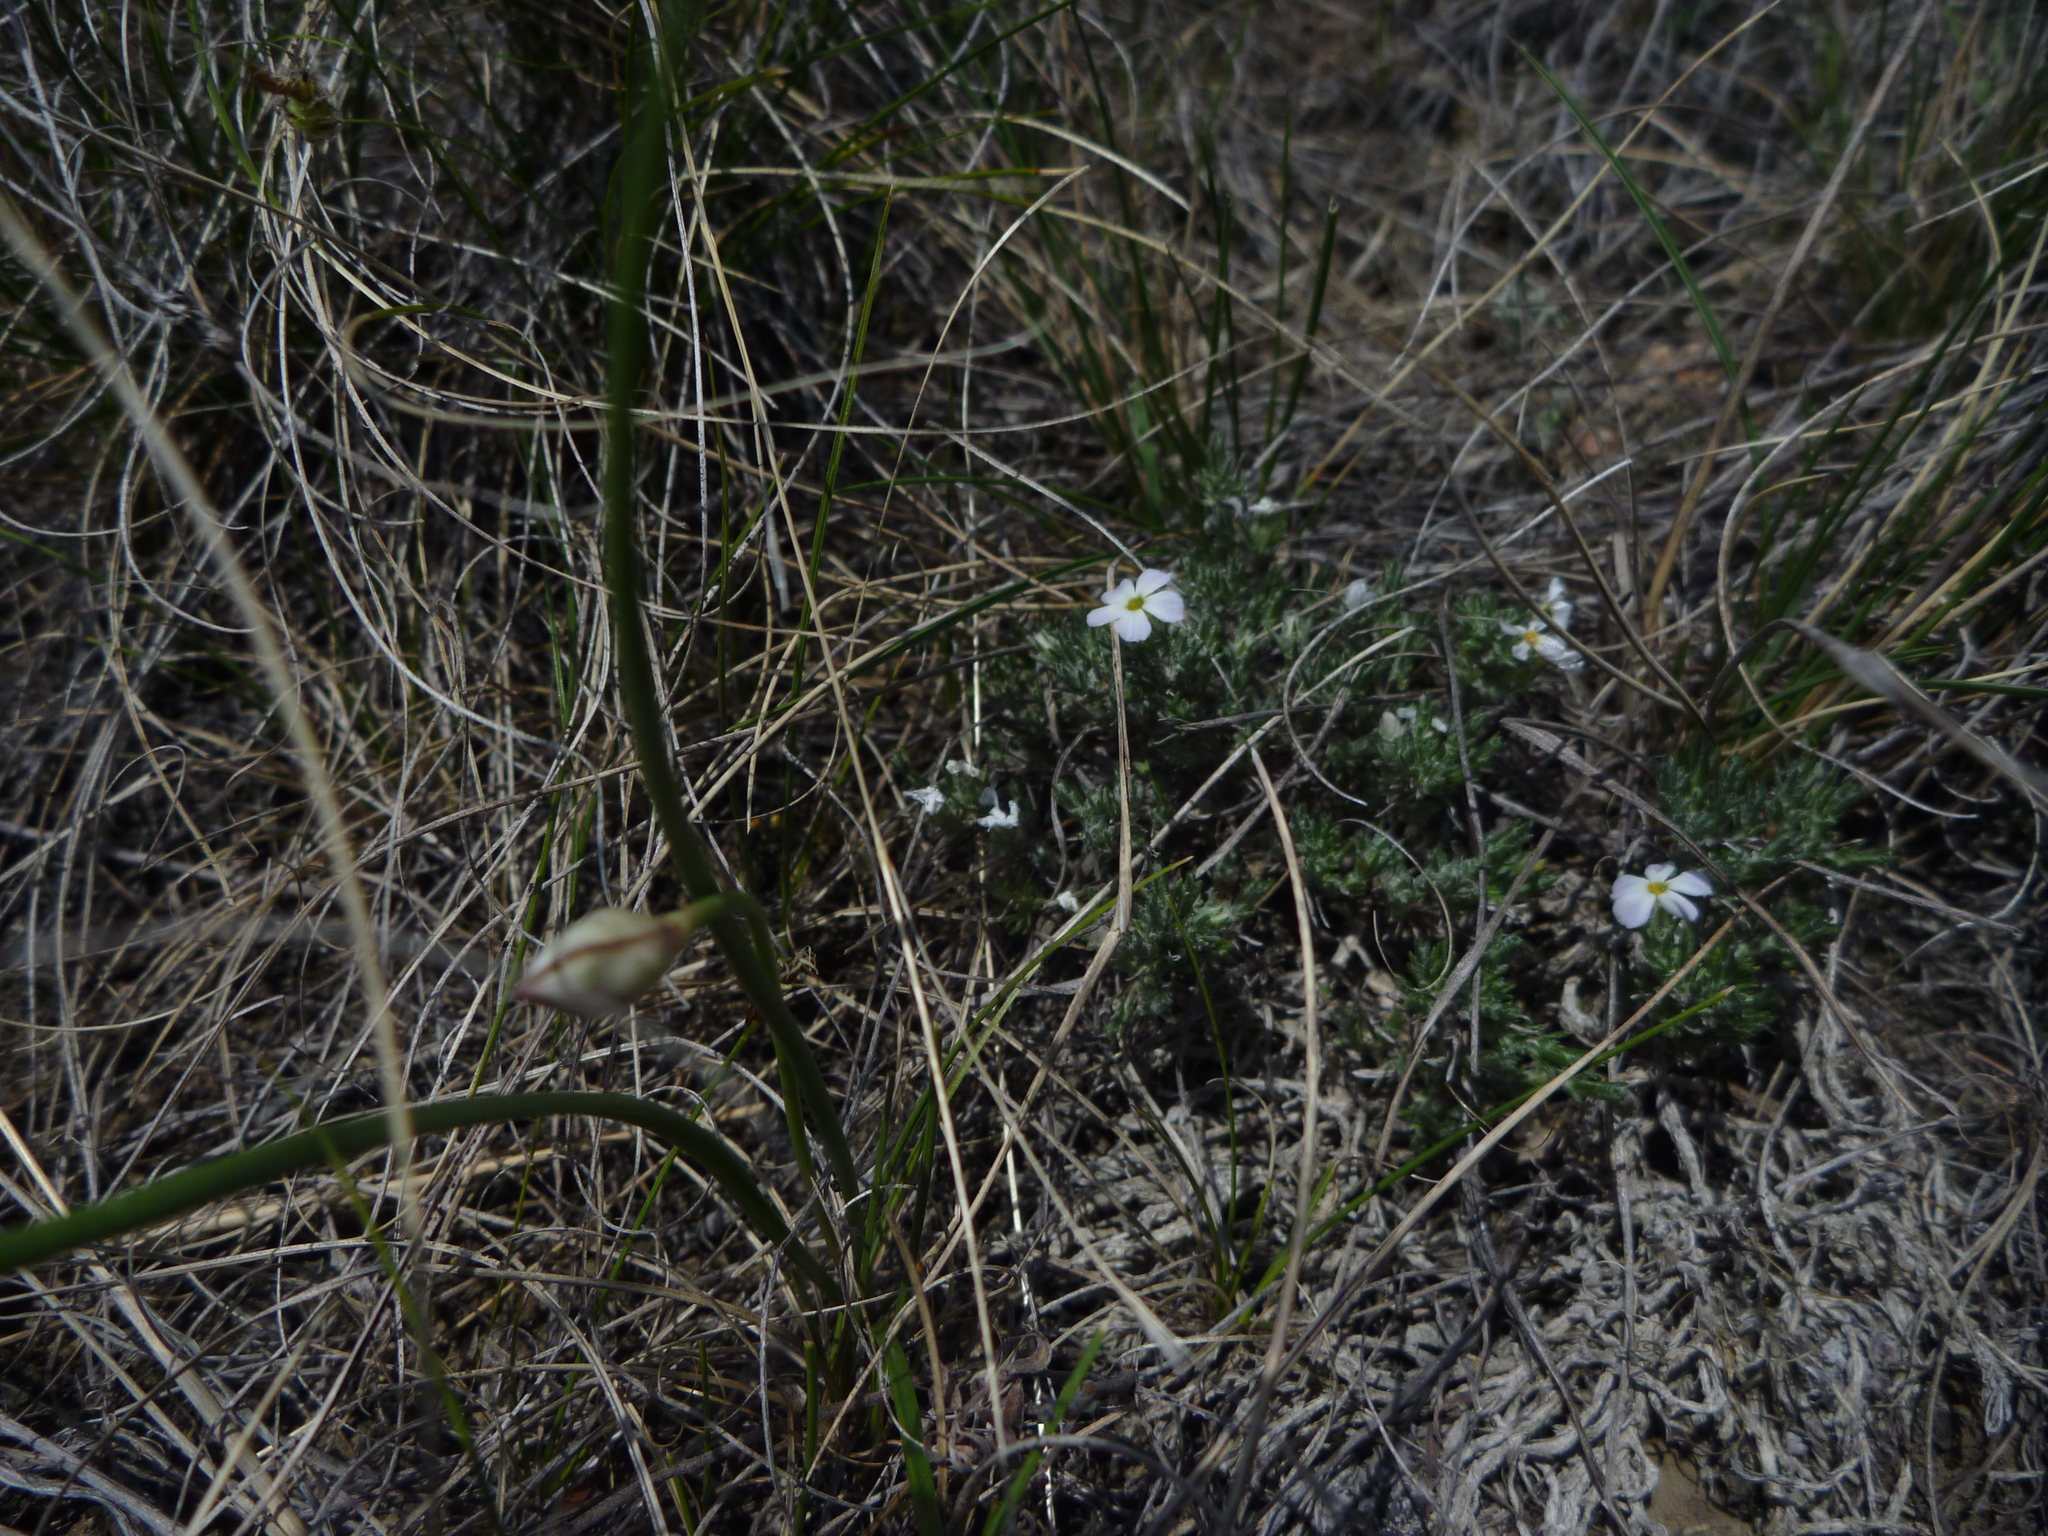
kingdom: Plantae
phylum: Tracheophyta
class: Magnoliopsida
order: Ericales
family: Polemoniaceae
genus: Phlox
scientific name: Phlox hoodii
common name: Moss phlox
